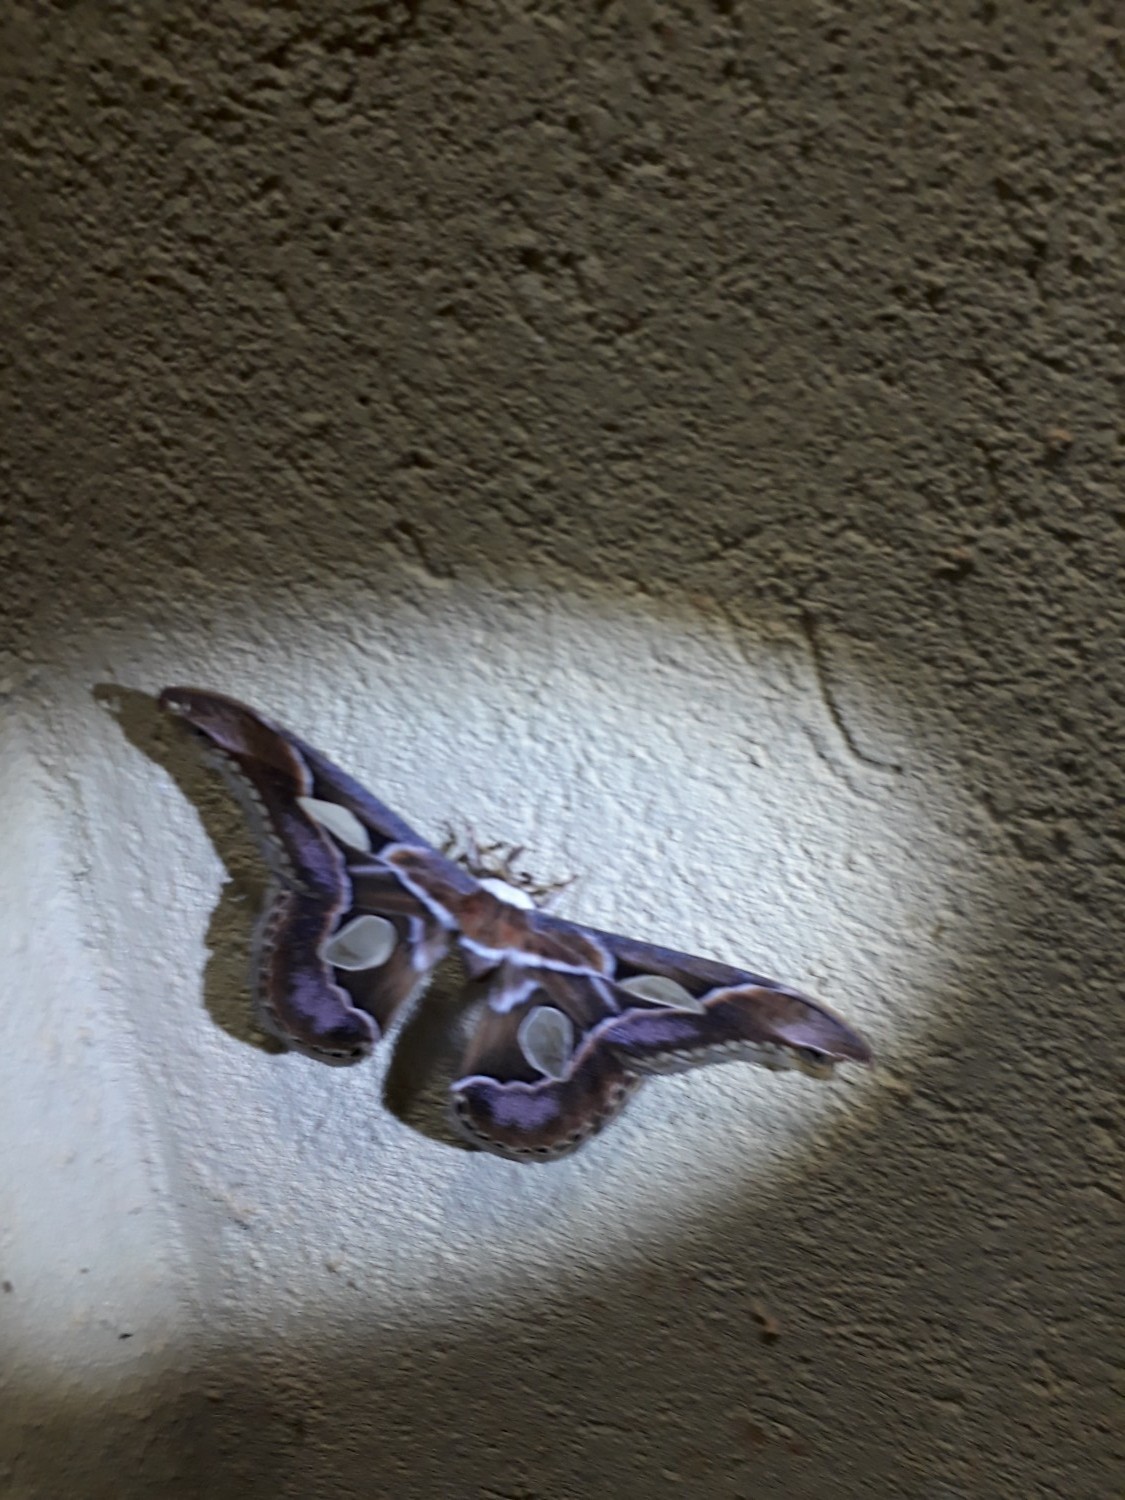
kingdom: Animalia
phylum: Arthropoda
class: Insecta
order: Lepidoptera
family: Saturniidae
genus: Rothschildia
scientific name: Rothschildia arethusa
